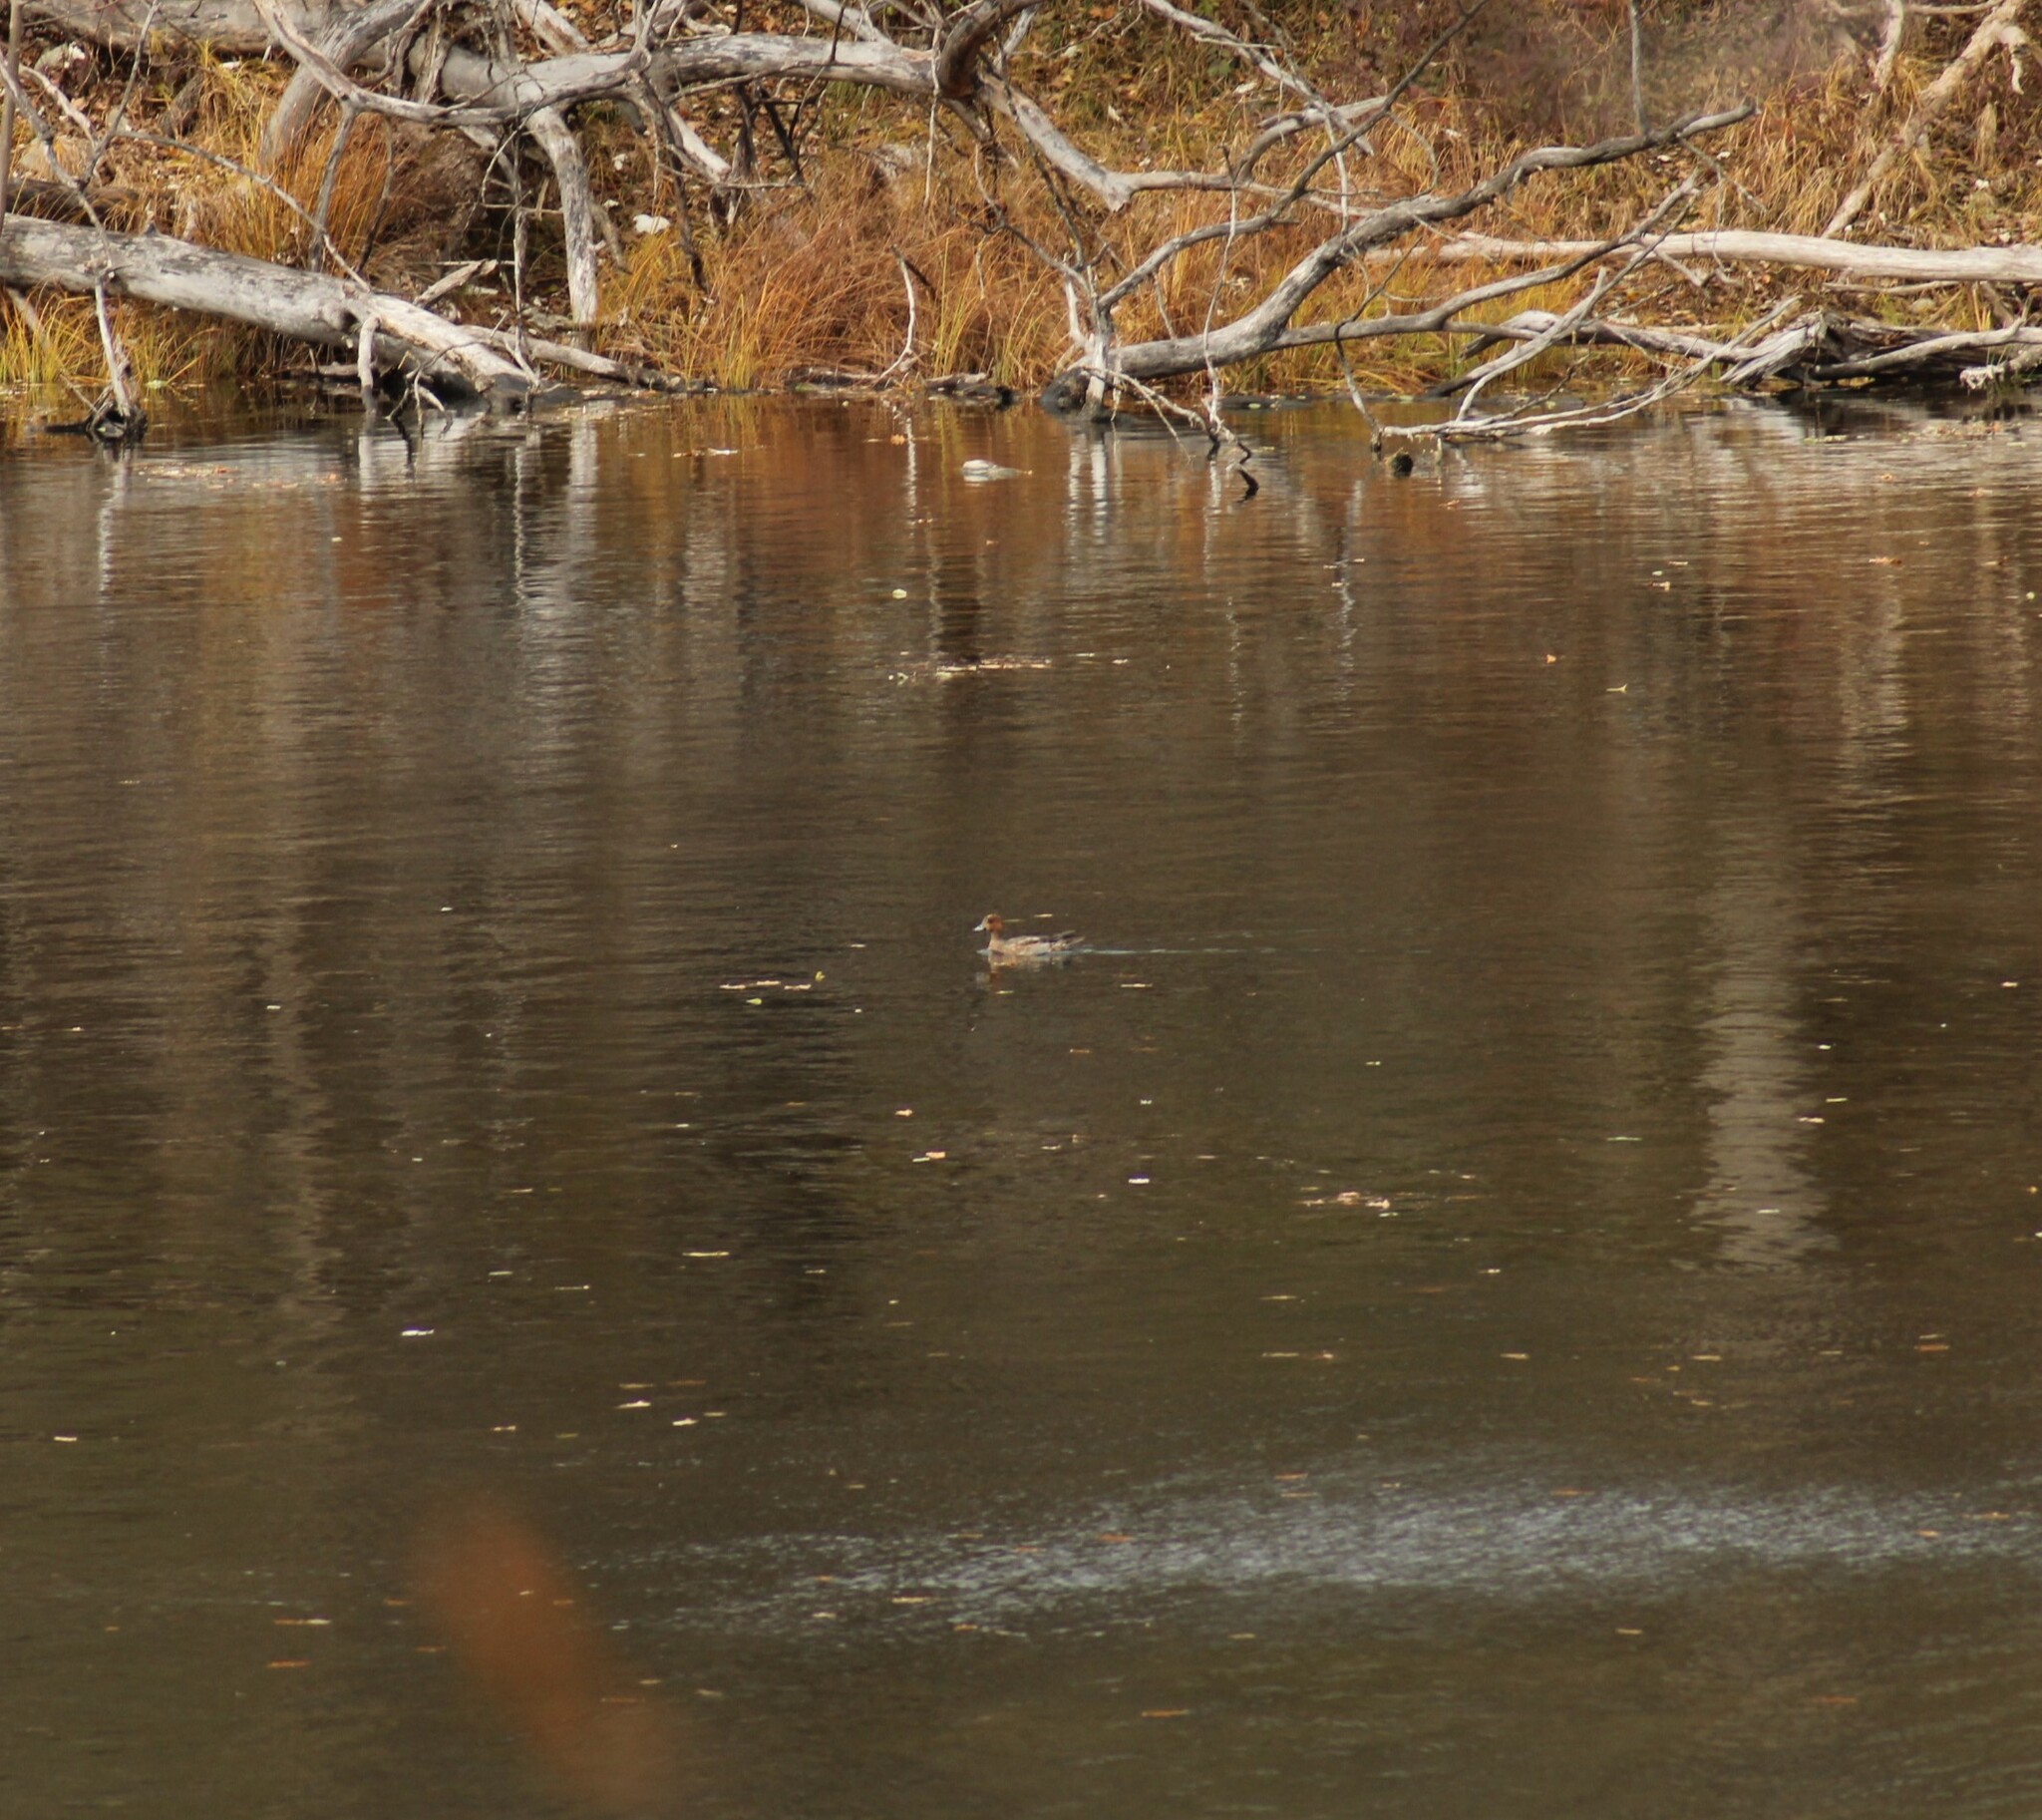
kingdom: Animalia
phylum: Chordata
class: Aves
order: Anseriformes
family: Anatidae
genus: Mareca
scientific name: Mareca penelope
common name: Eurasian wigeon
